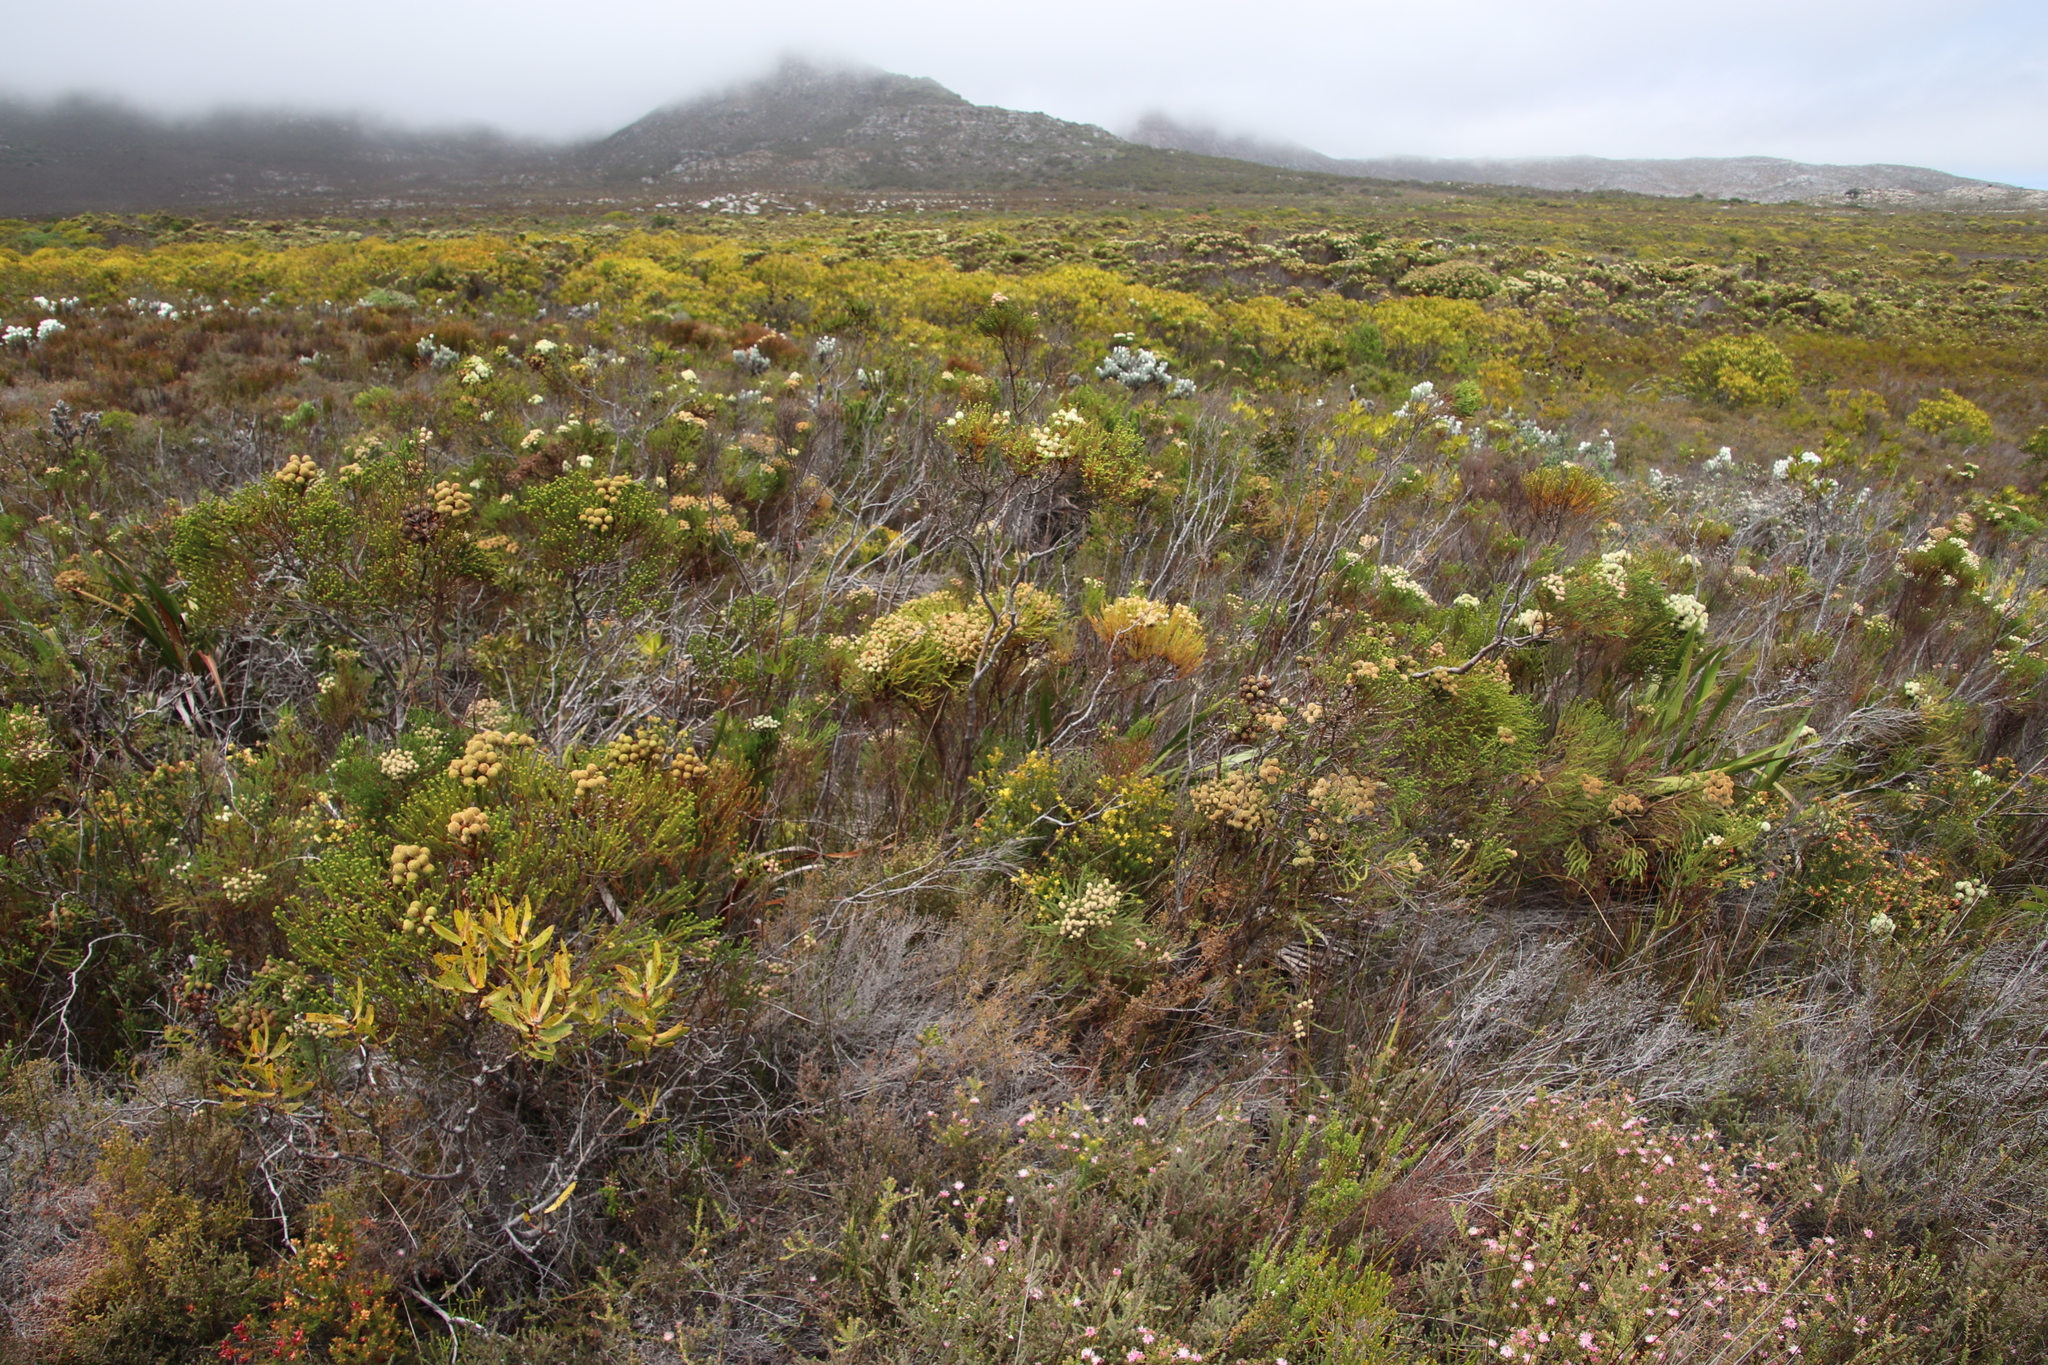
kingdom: Plantae
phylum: Tracheophyta
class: Magnoliopsida
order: Bruniales
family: Bruniaceae
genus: Berzelia
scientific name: Berzelia lanuginosa
